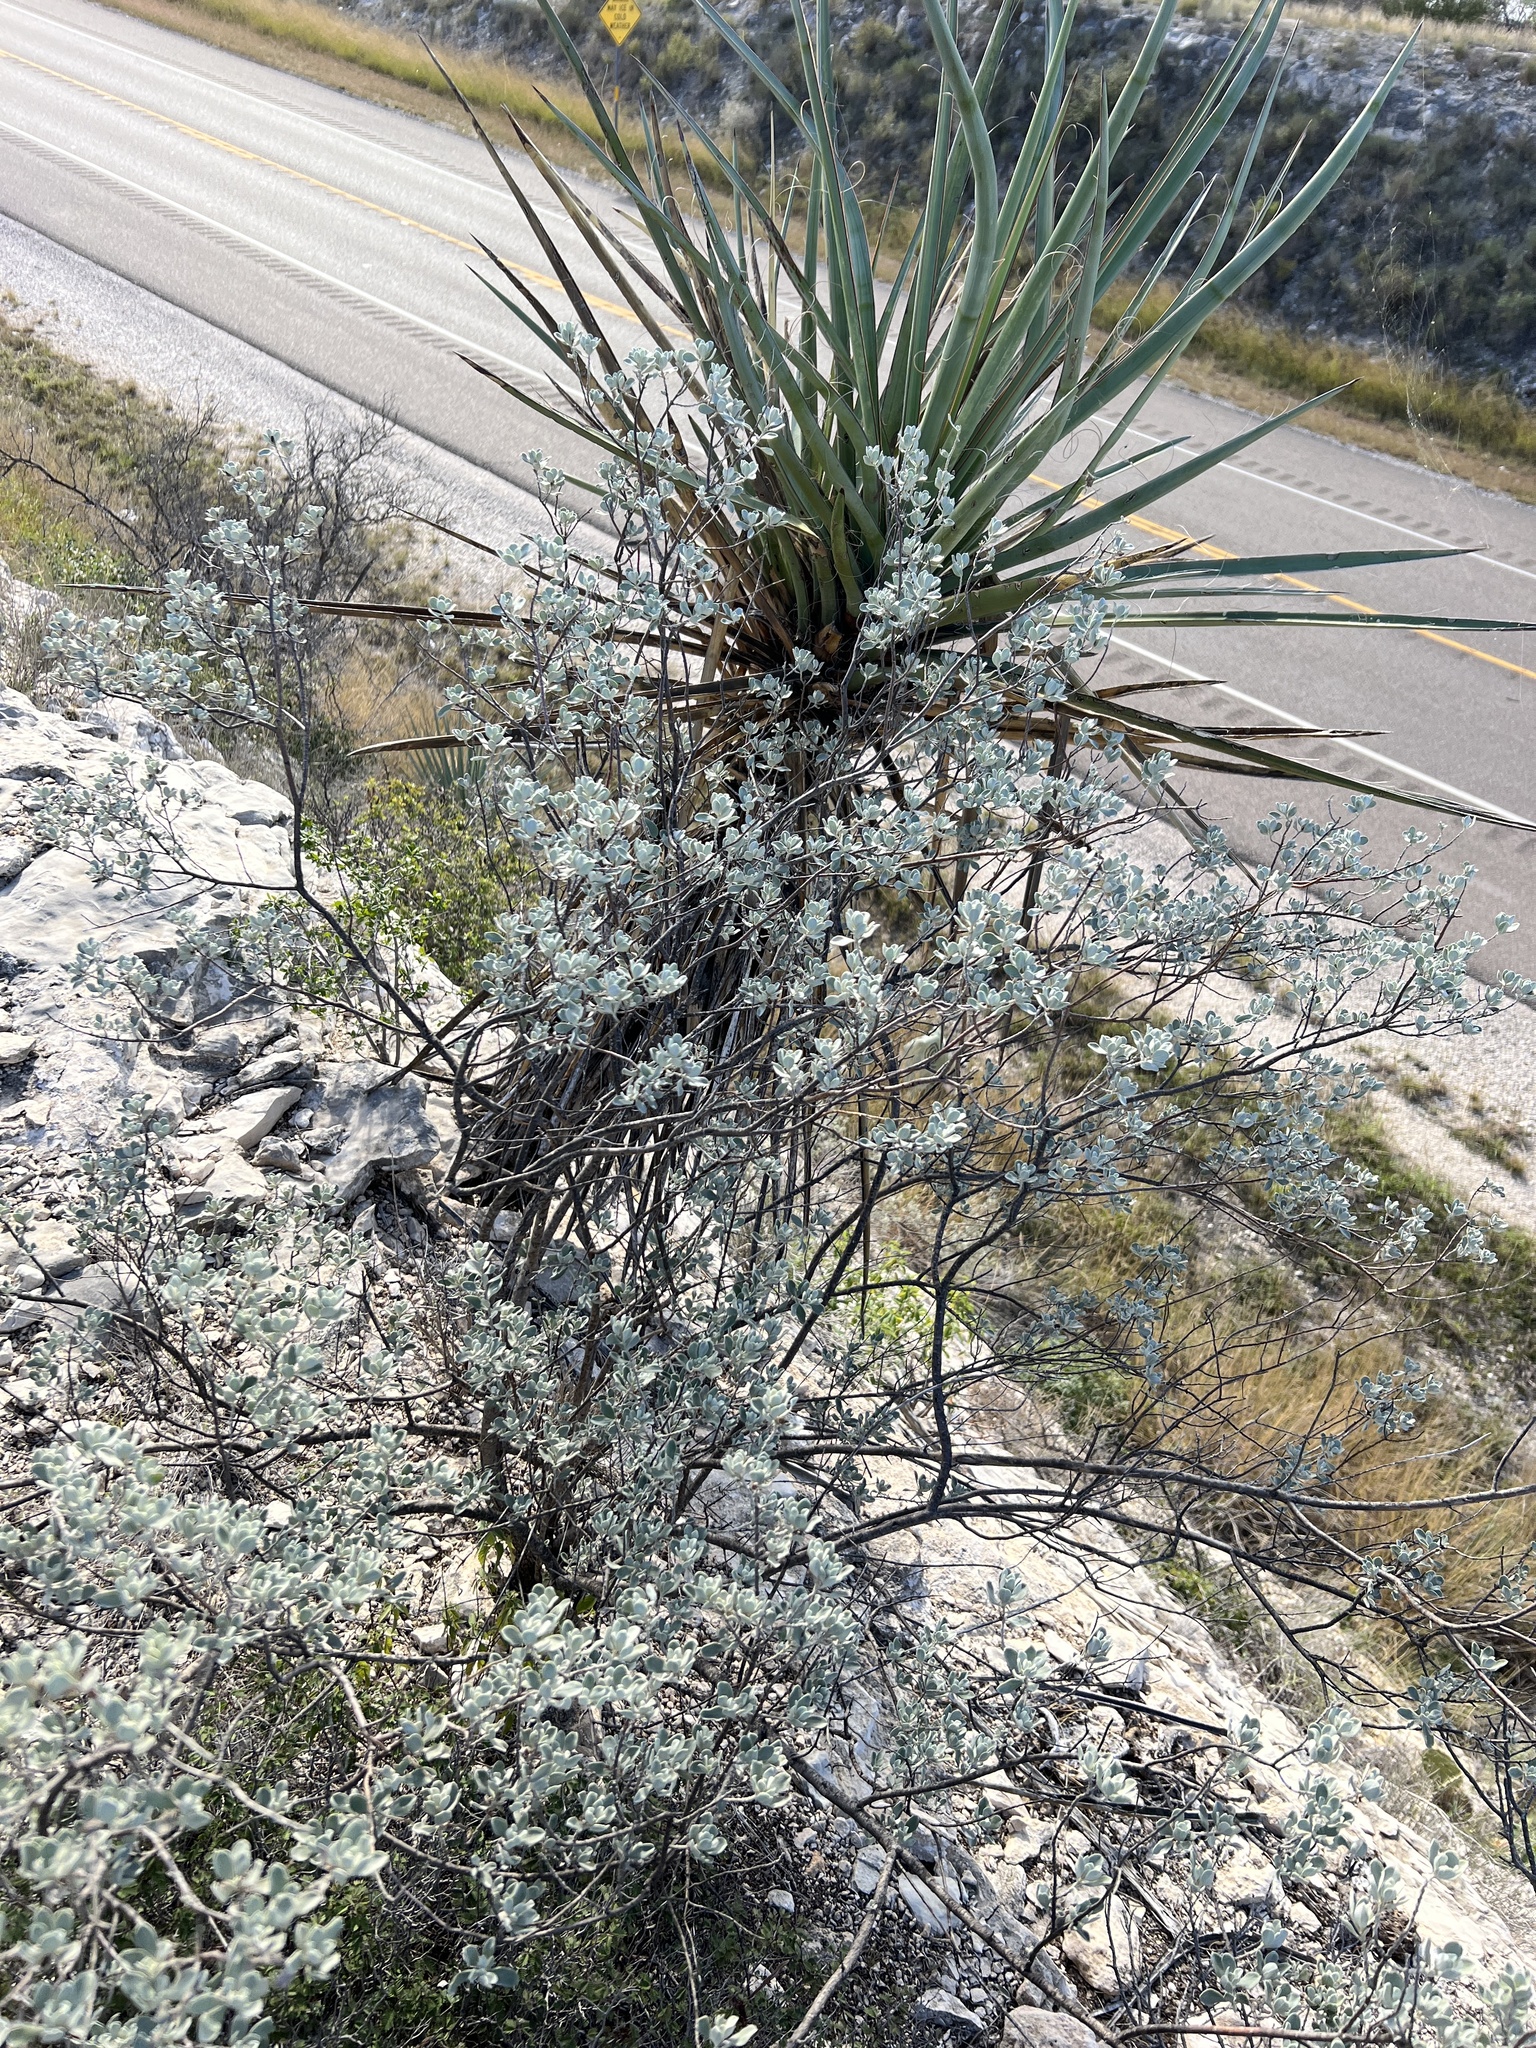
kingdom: Plantae
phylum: Tracheophyta
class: Magnoliopsida
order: Lamiales
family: Scrophulariaceae
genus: Leucophyllum
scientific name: Leucophyllum frutescens
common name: Texas silverleaf
